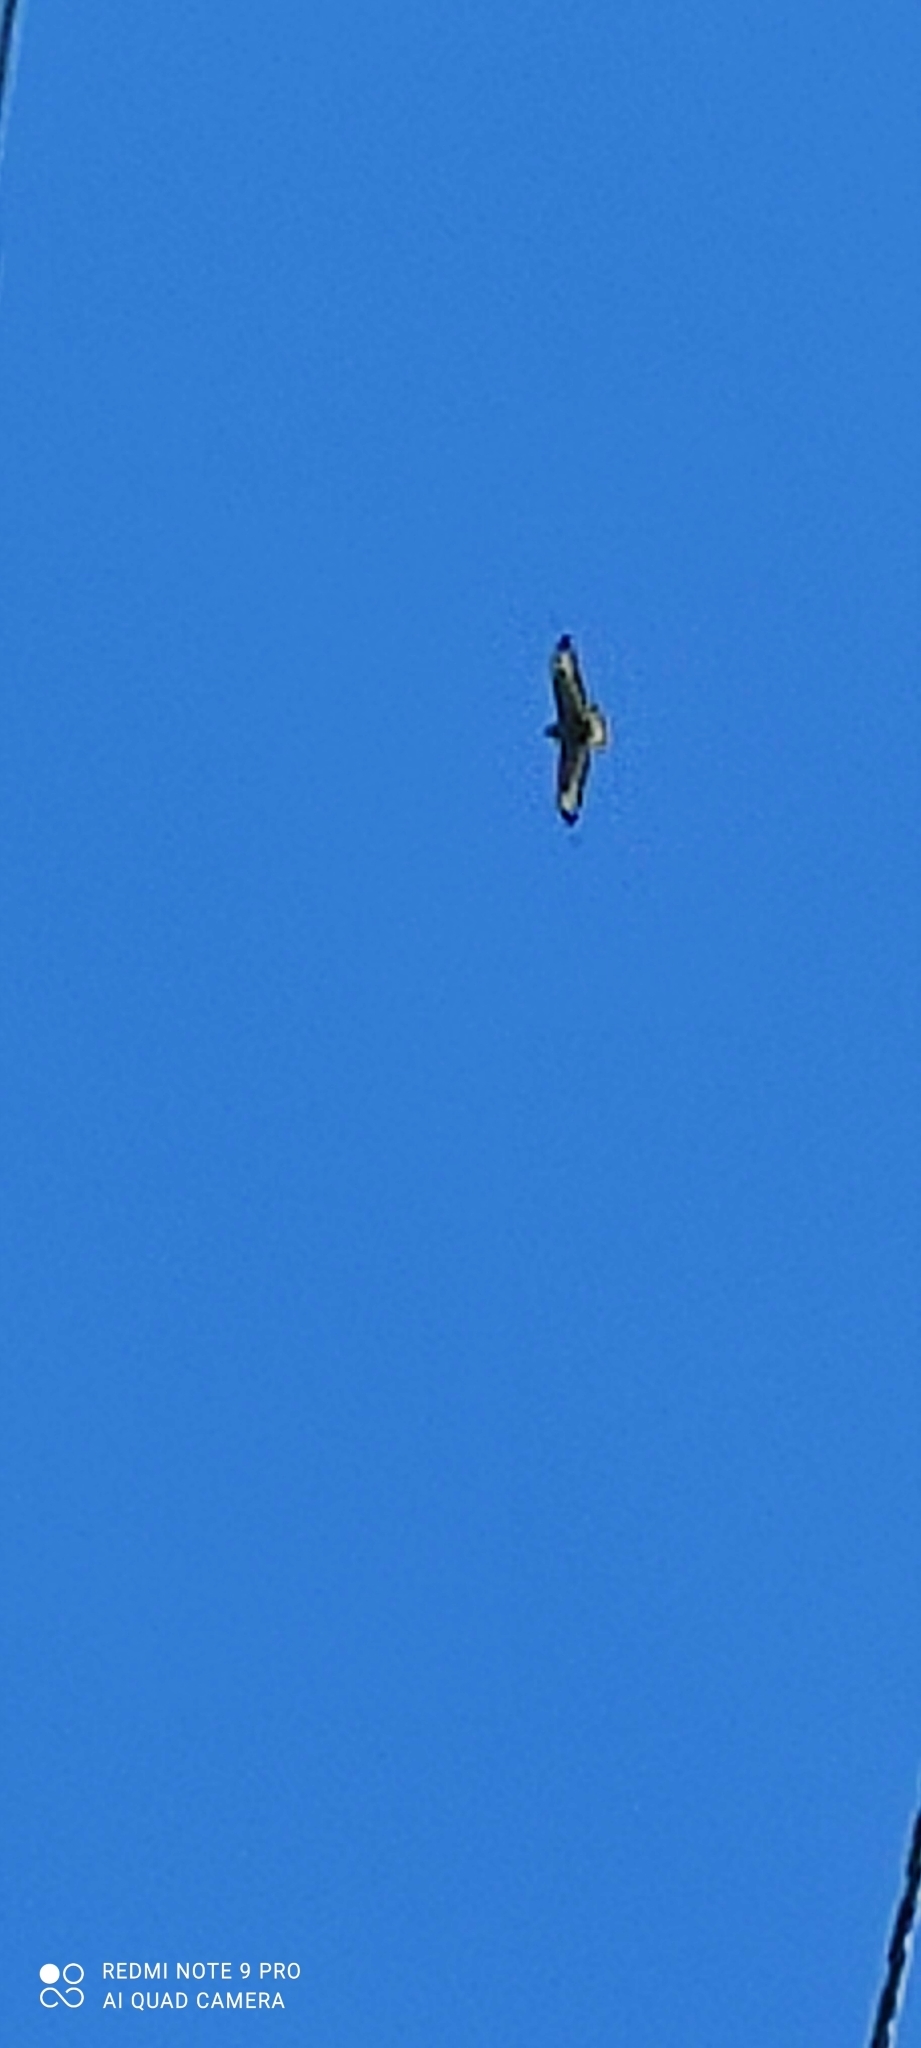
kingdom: Animalia
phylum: Chordata
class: Aves
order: Accipitriformes
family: Accipitridae
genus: Buteo
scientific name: Buteo buteo
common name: Common buzzard
